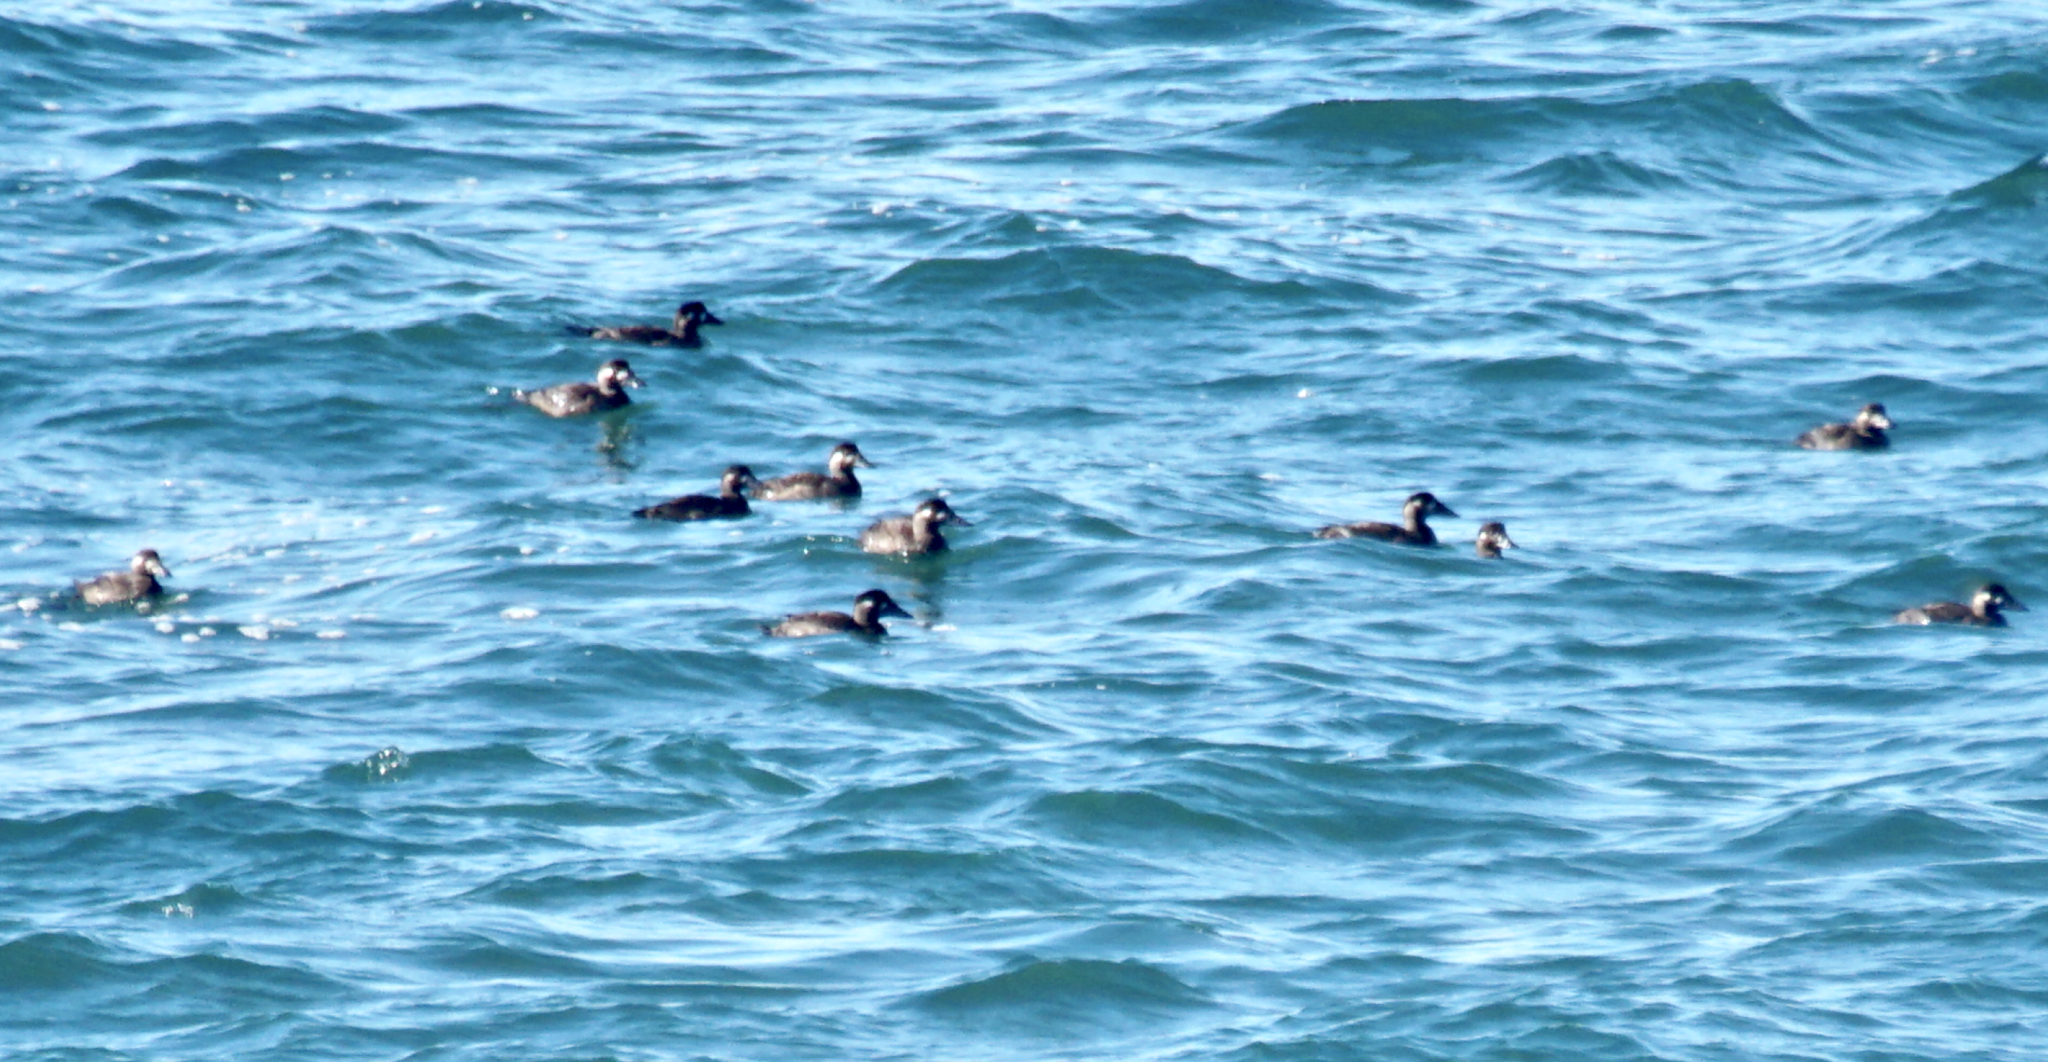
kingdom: Animalia
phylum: Chordata
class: Aves
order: Anseriformes
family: Anatidae
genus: Melanitta
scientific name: Melanitta perspicillata
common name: Surf scoter
